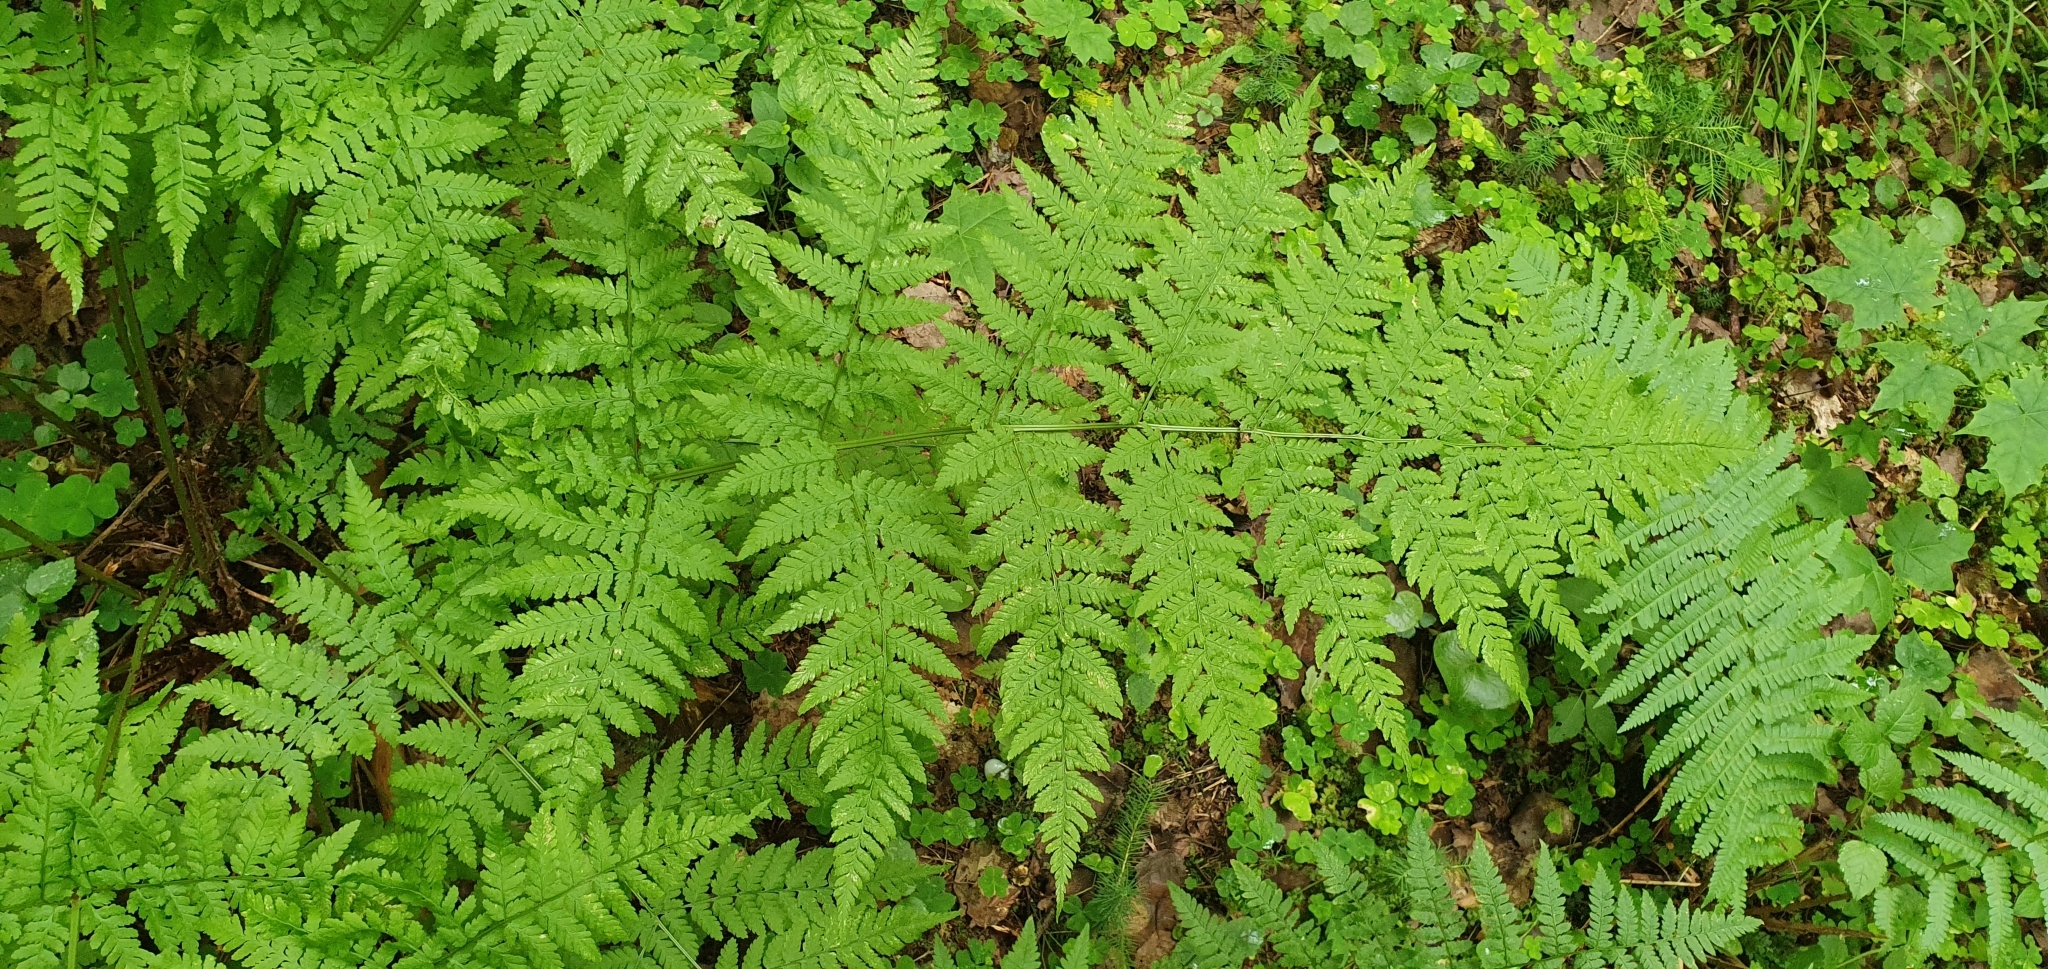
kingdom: Plantae
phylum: Tracheophyta
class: Polypodiopsida
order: Polypodiales
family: Dryopteridaceae
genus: Dryopteris
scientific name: Dryopteris expansa
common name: Northern buckler fern
